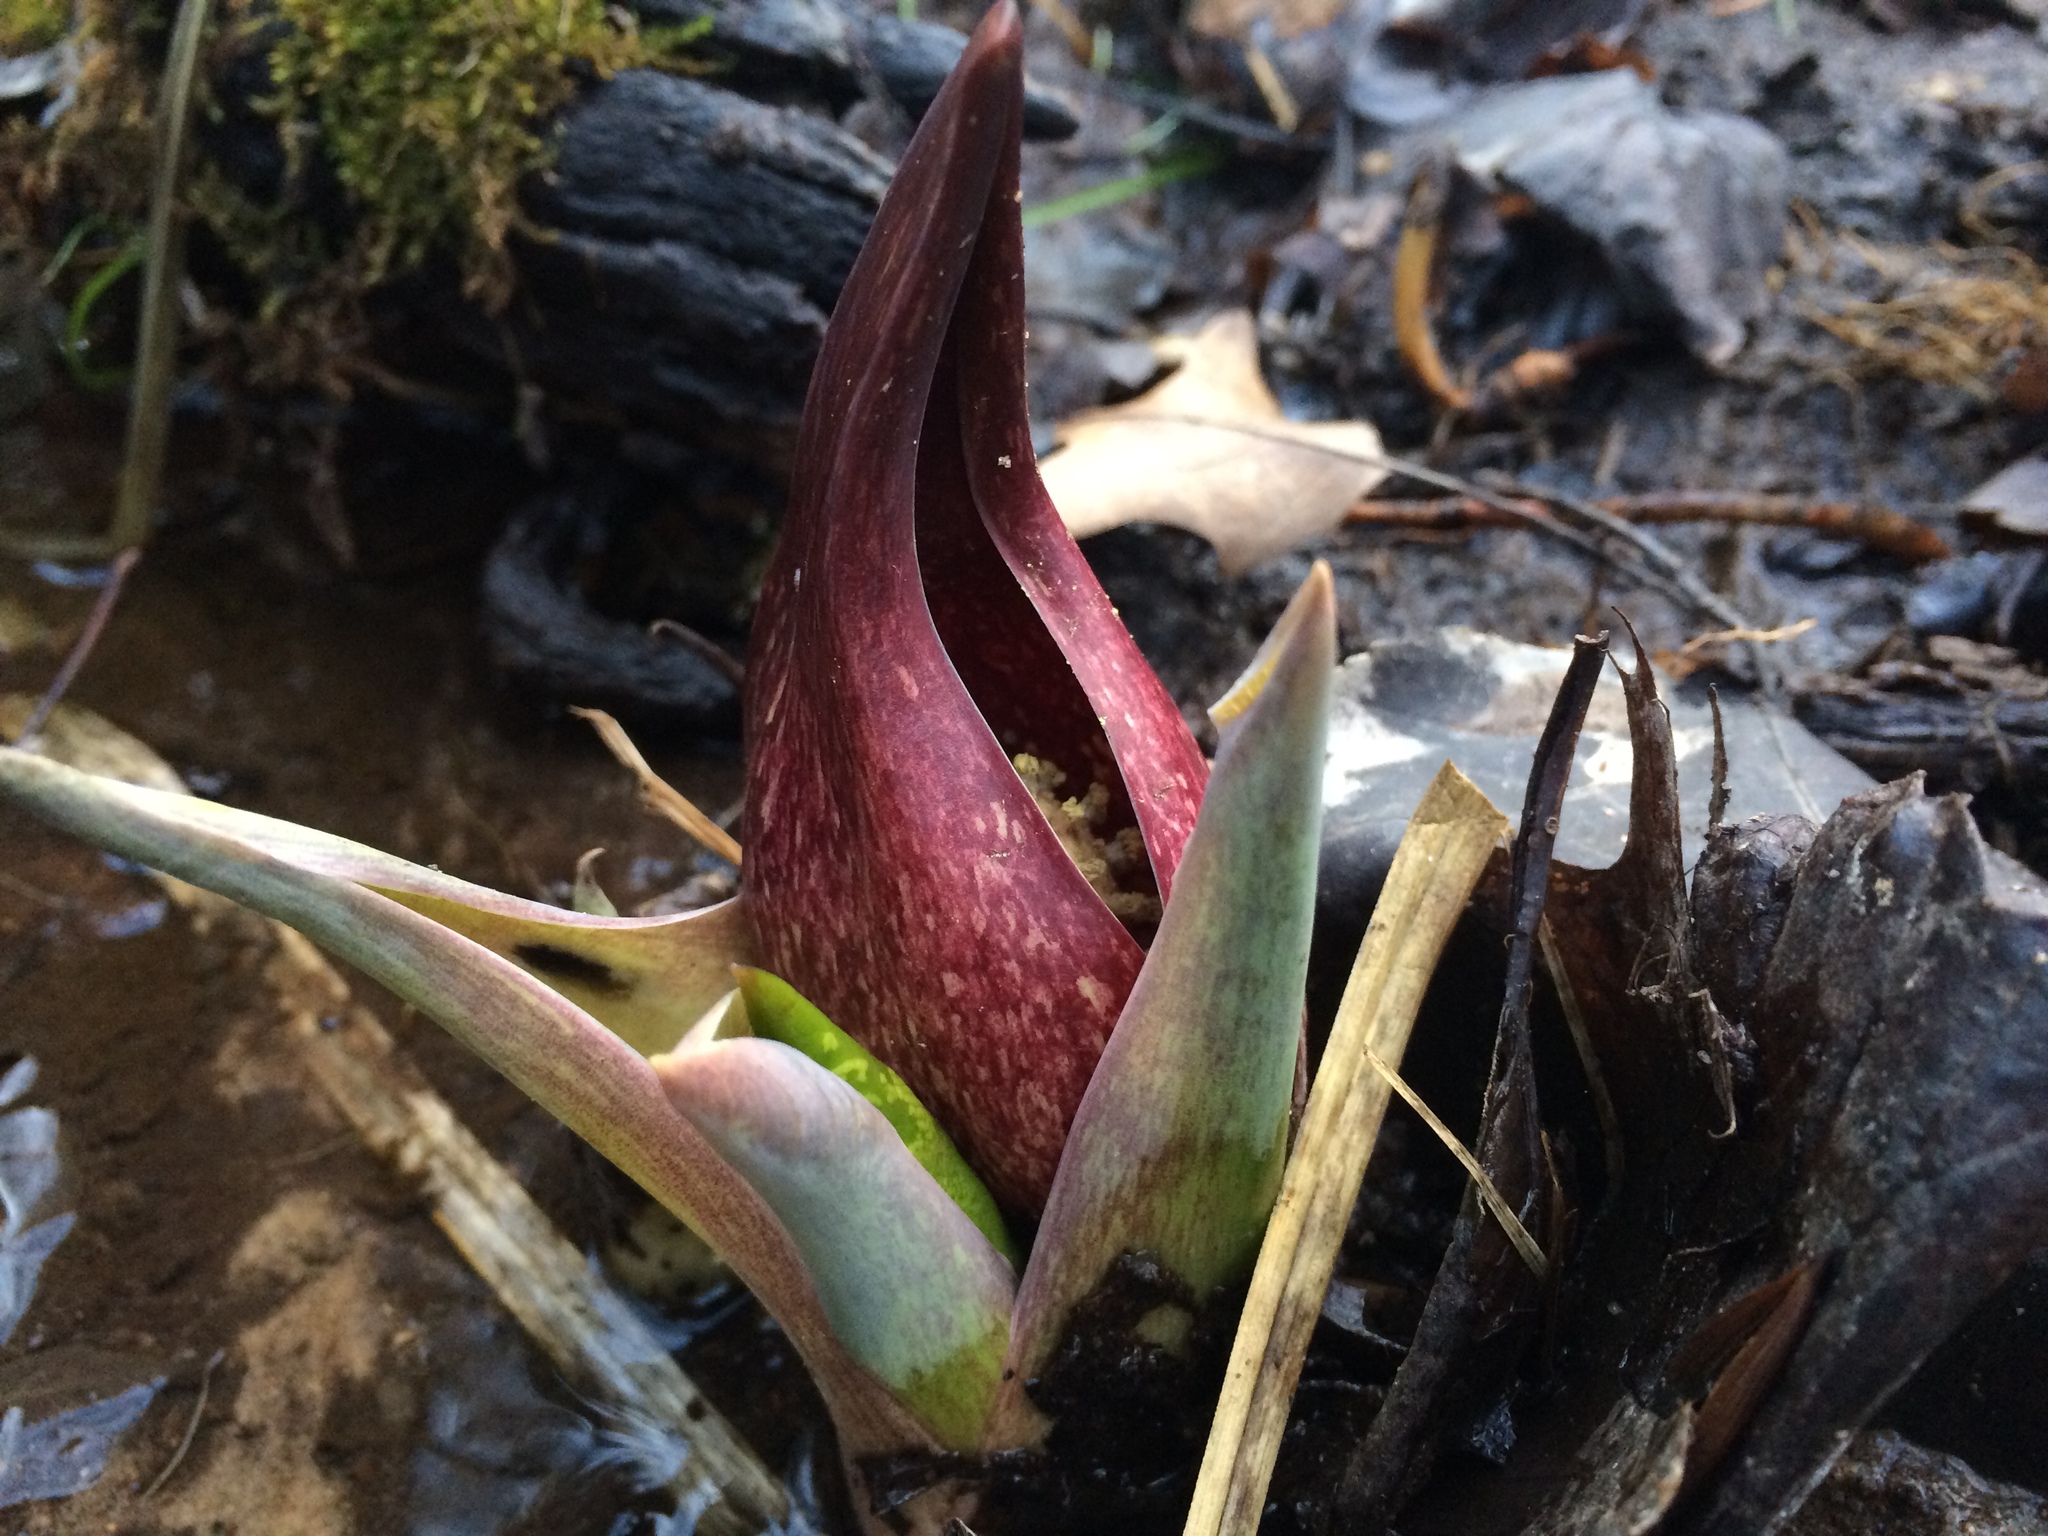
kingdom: Plantae
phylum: Tracheophyta
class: Liliopsida
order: Alismatales
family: Araceae
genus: Symplocarpus
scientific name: Symplocarpus foetidus
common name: Eastern skunk cabbage
